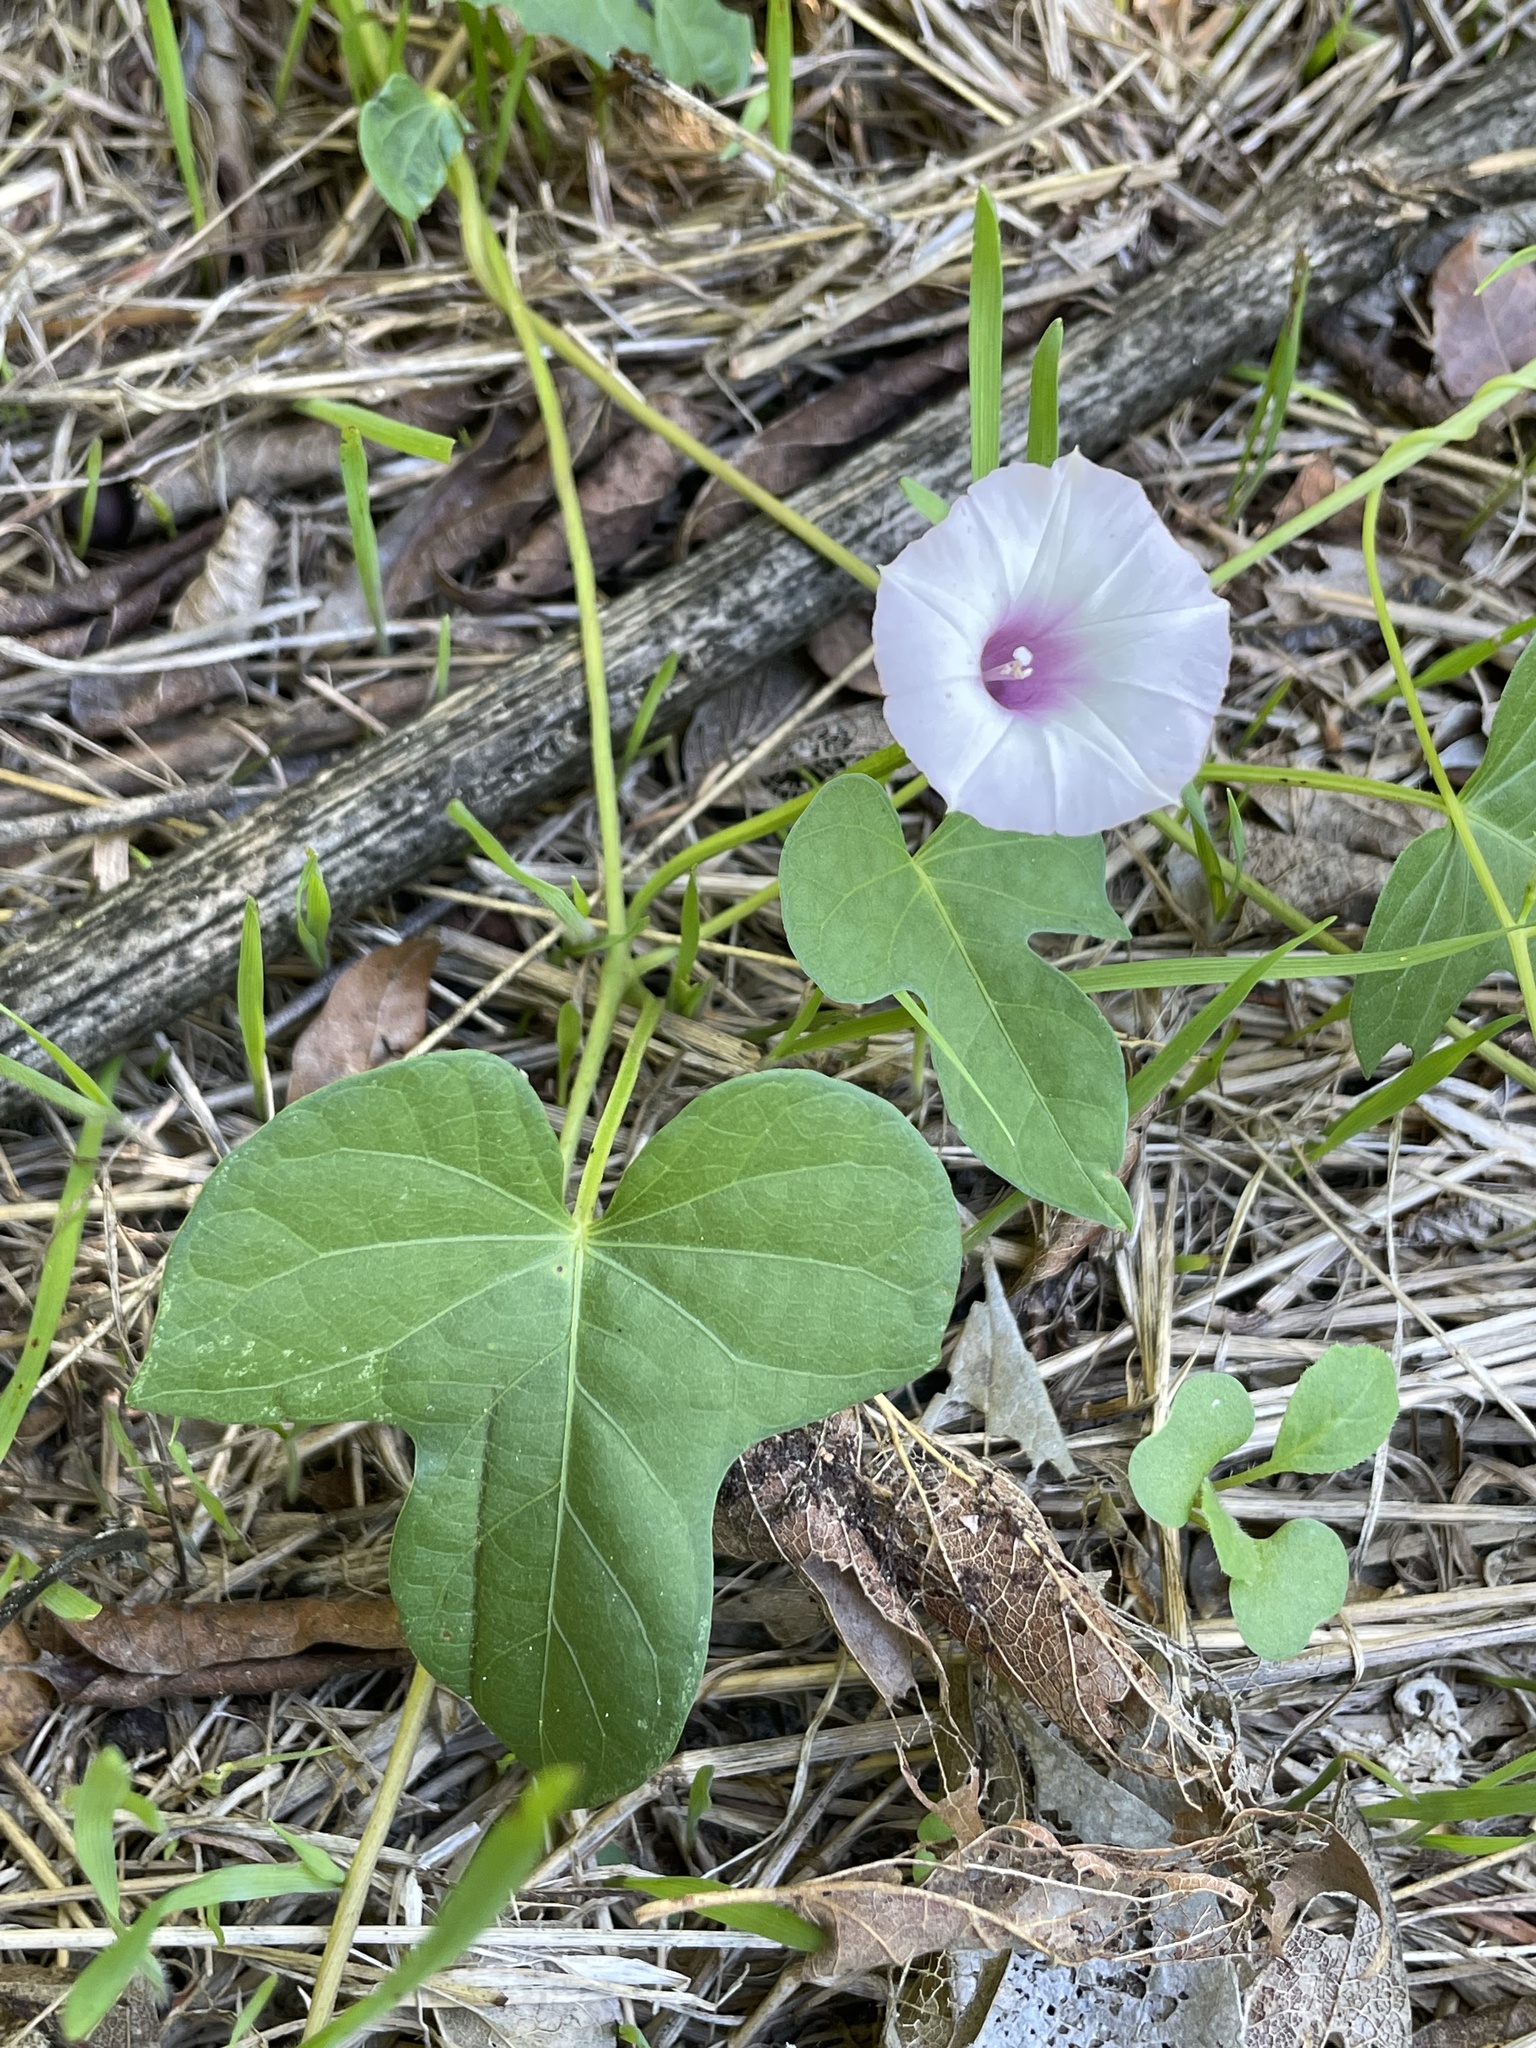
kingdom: Plantae
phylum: Tracheophyta
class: Magnoliopsida
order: Solanales
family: Convolvulaceae
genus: Ipomoea
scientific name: Ipomoea cordatotriloba
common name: Cotton morning glory
